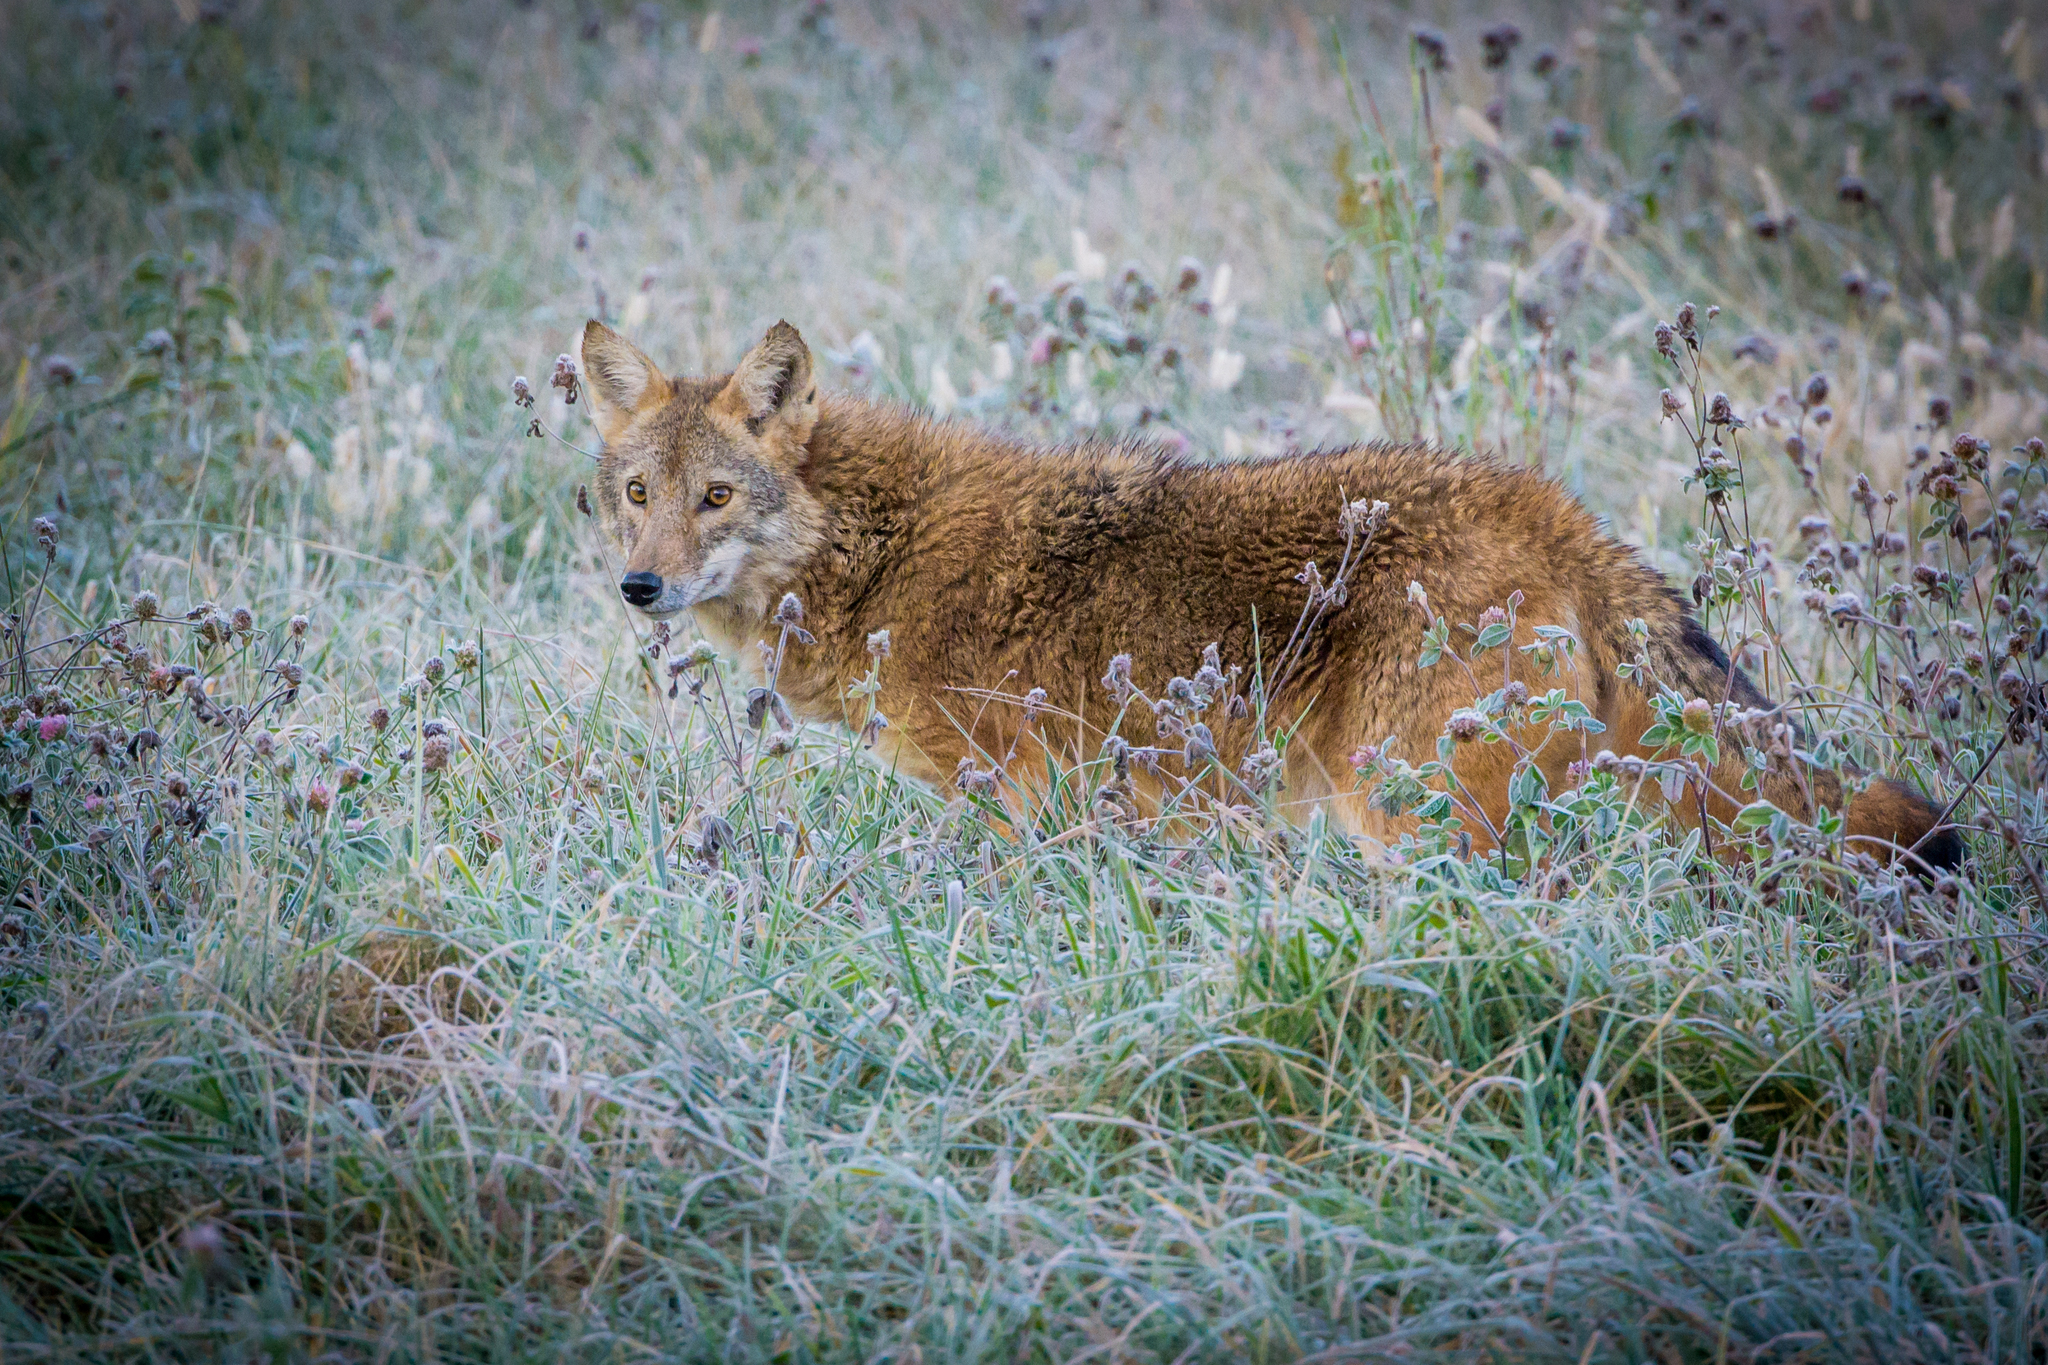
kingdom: Animalia
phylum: Chordata
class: Mammalia
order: Carnivora
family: Canidae
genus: Canis
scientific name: Canis latrans
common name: Coyote
